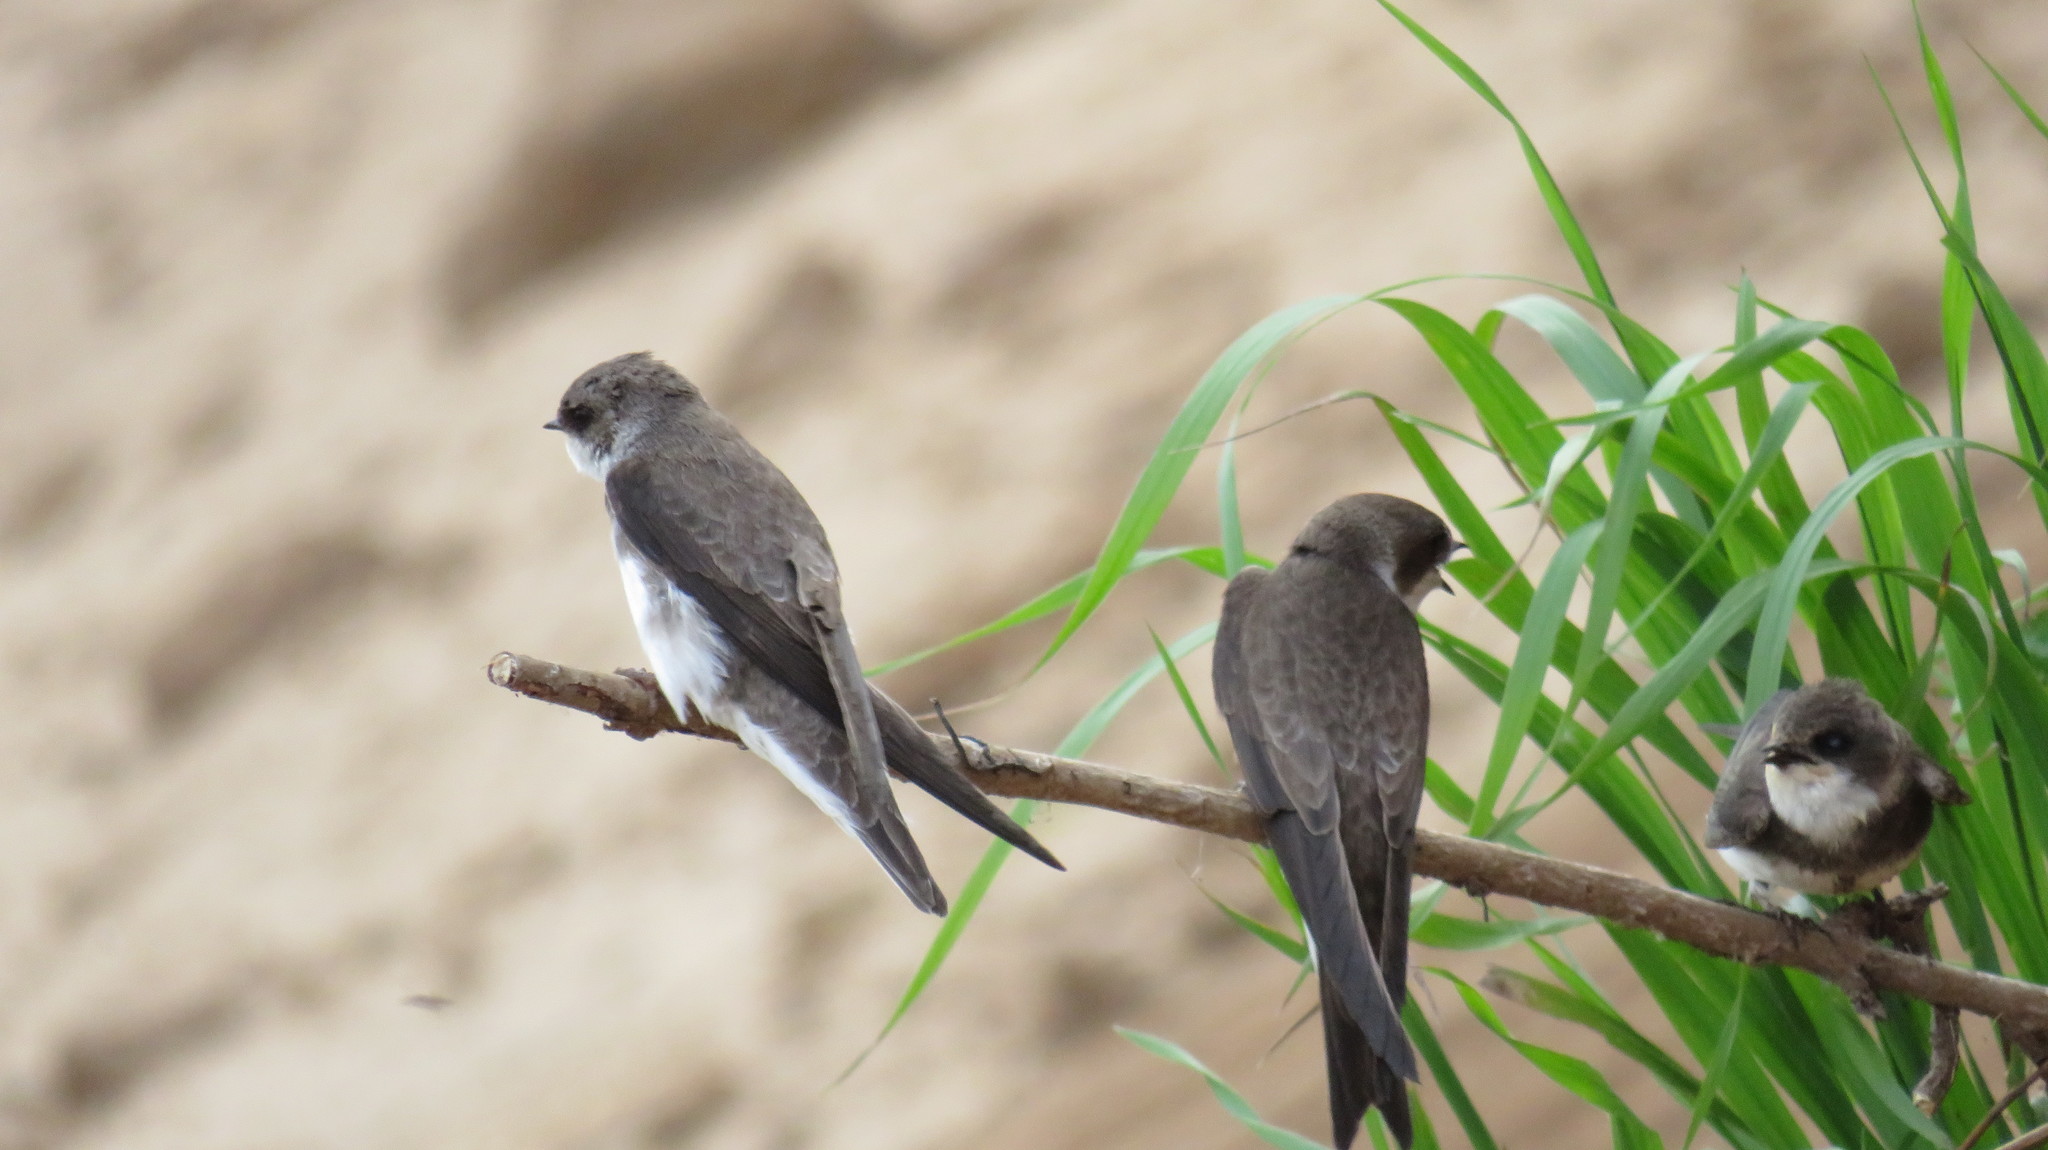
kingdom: Animalia
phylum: Chordata
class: Aves
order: Passeriformes
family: Hirundinidae
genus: Riparia
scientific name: Riparia riparia
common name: Sand martin
